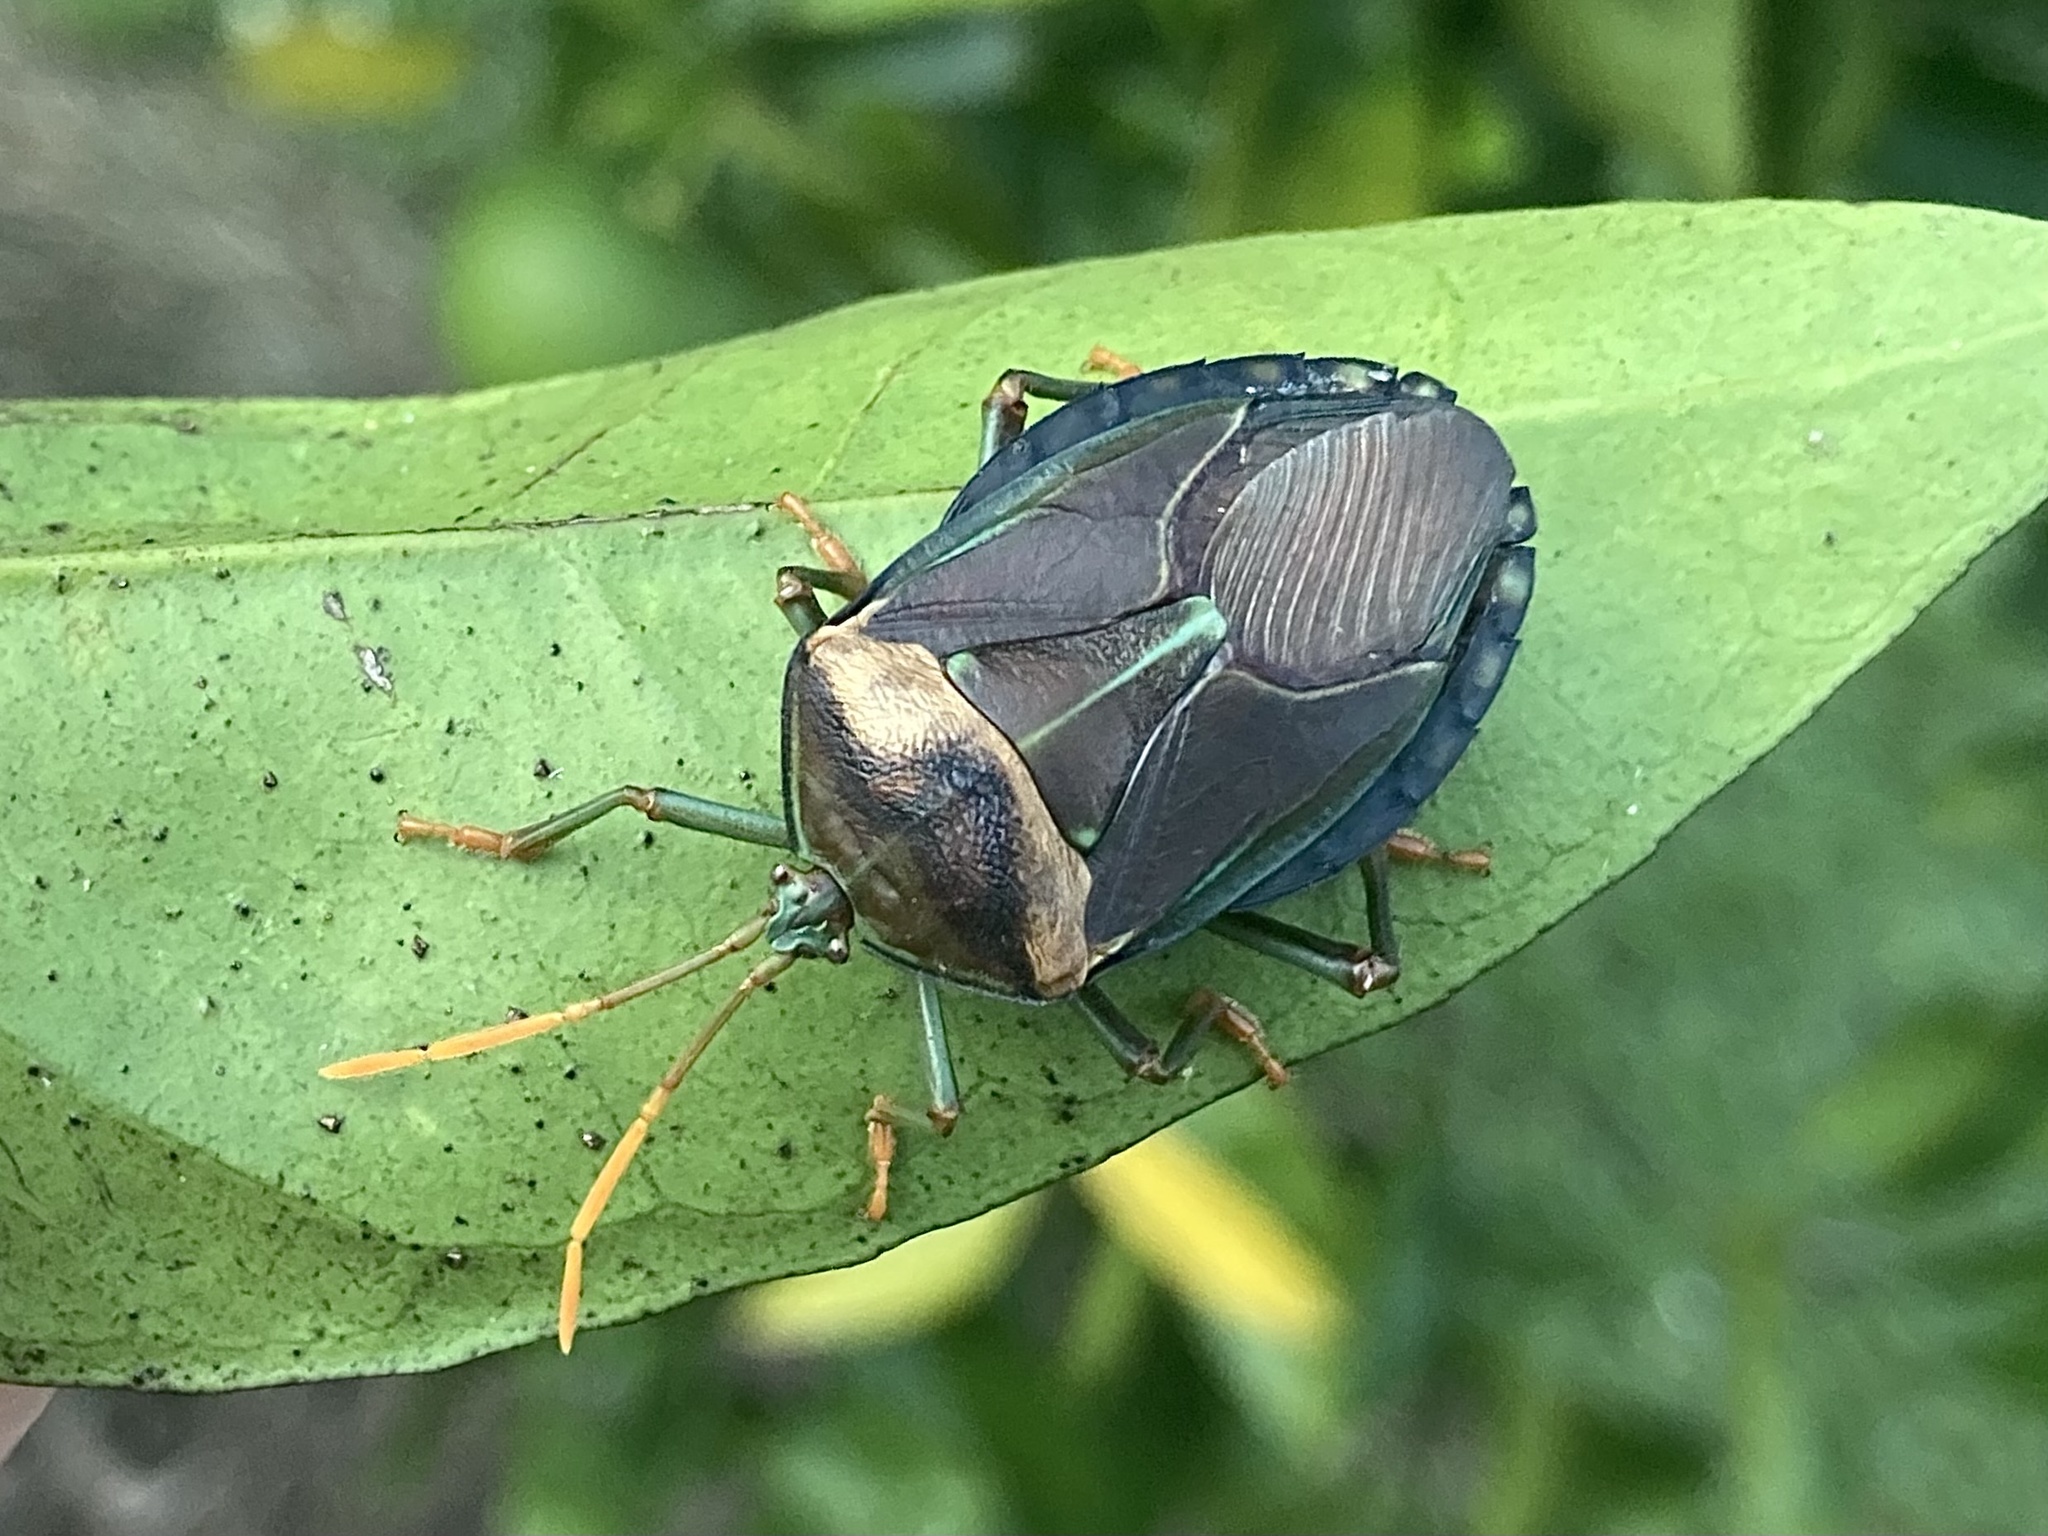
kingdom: Animalia
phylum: Arthropoda
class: Insecta
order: Hemiptera
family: Tessaratomidae
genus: Musgraveia
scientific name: Musgraveia sulciventris
